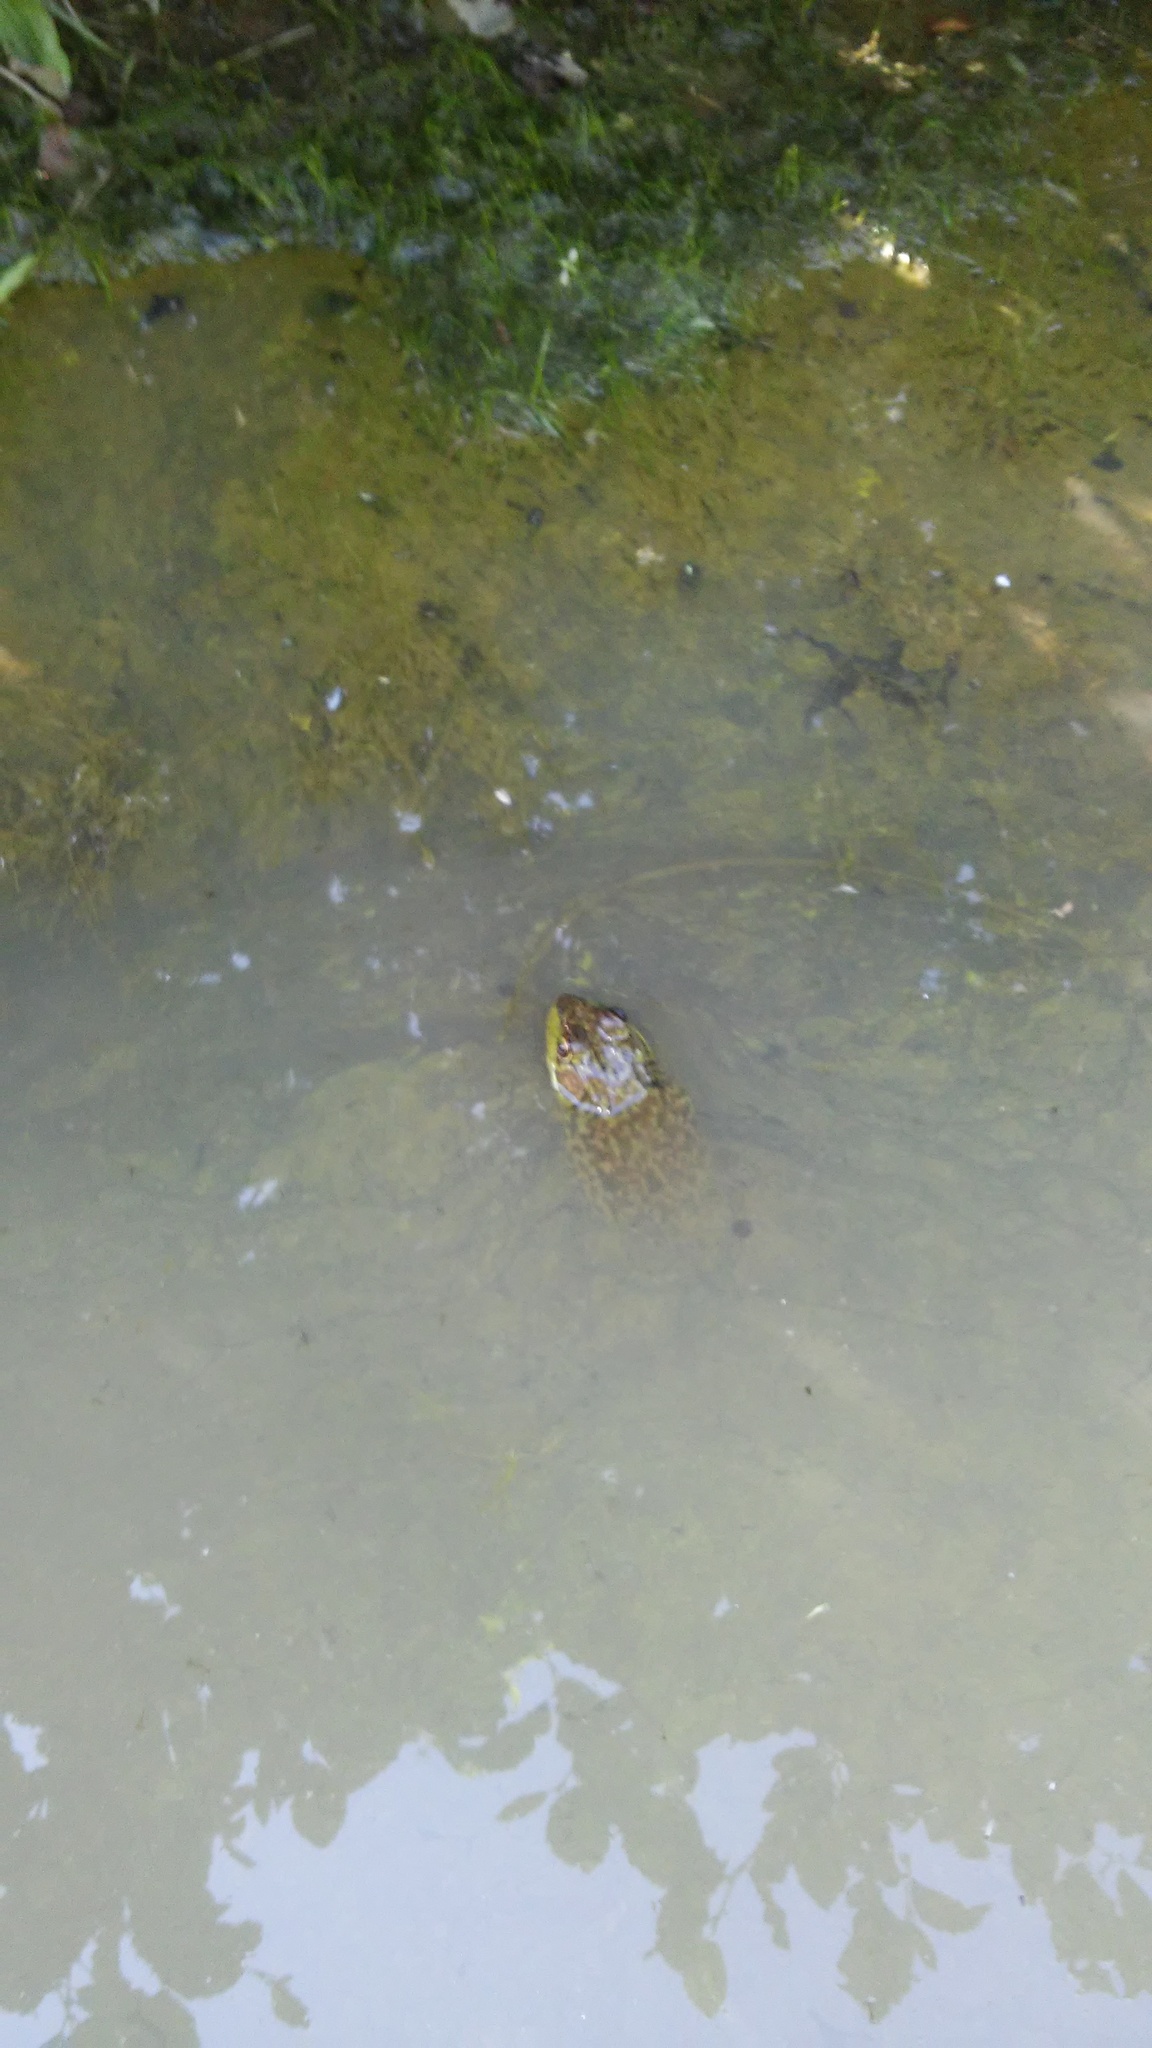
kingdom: Animalia
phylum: Chordata
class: Amphibia
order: Anura
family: Ranidae
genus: Lithobates
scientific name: Lithobates septentrionalis
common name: Mink frog
